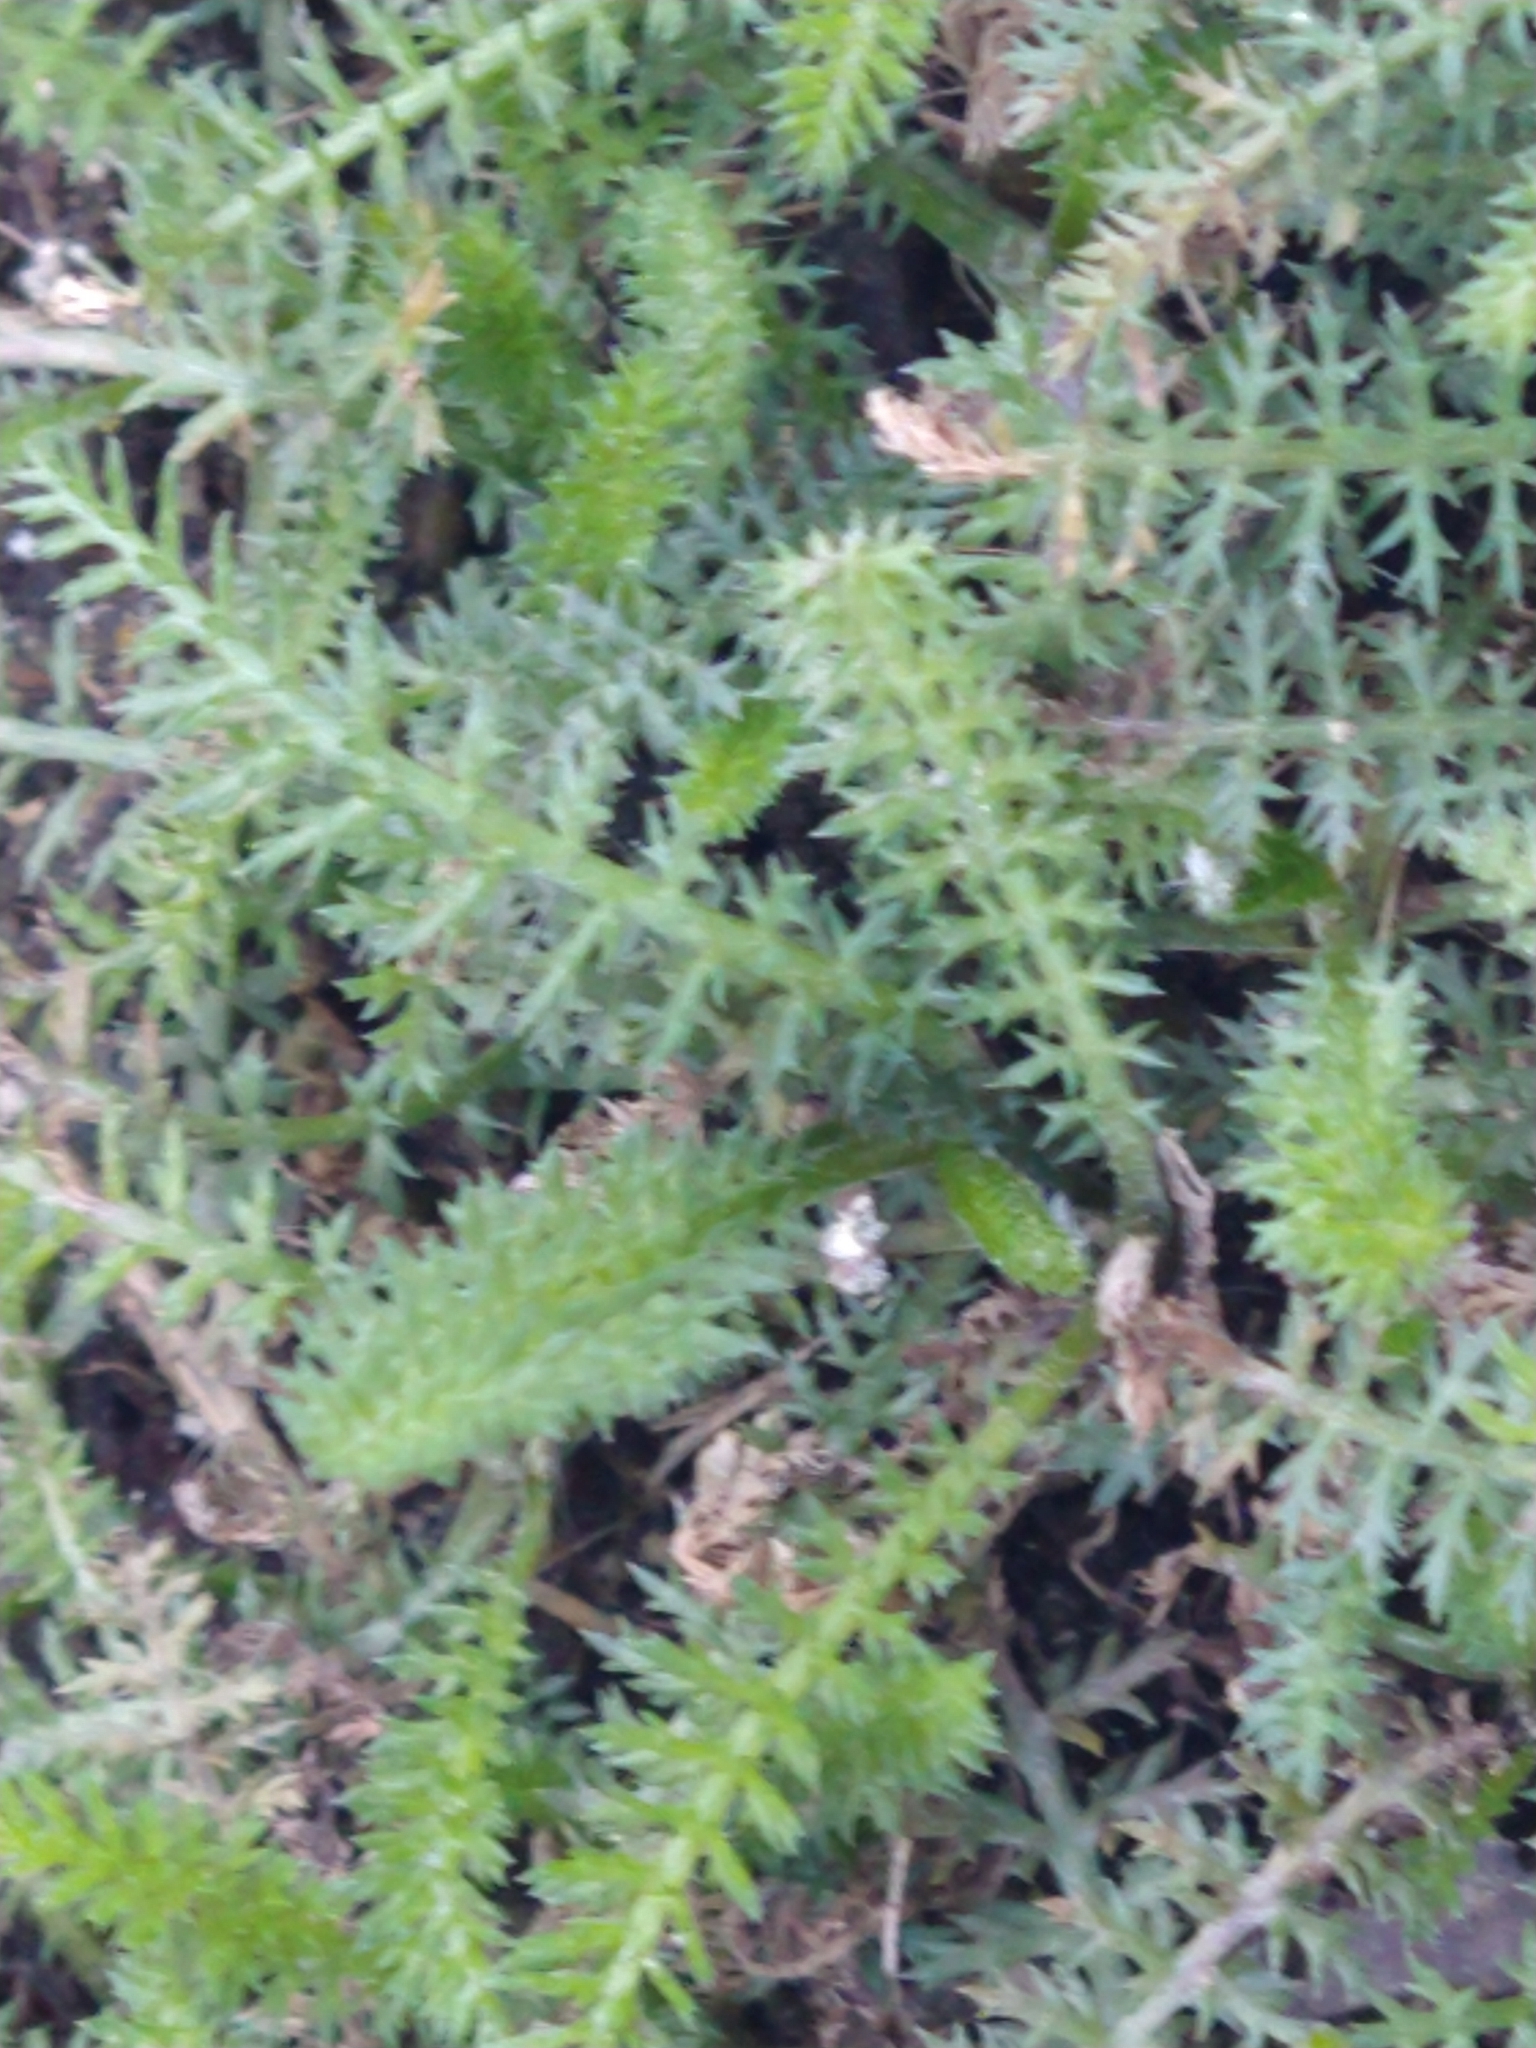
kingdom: Plantae
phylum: Tracheophyta
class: Magnoliopsida
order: Asterales
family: Asteraceae
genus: Achillea
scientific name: Achillea millefolium
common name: Yarrow
